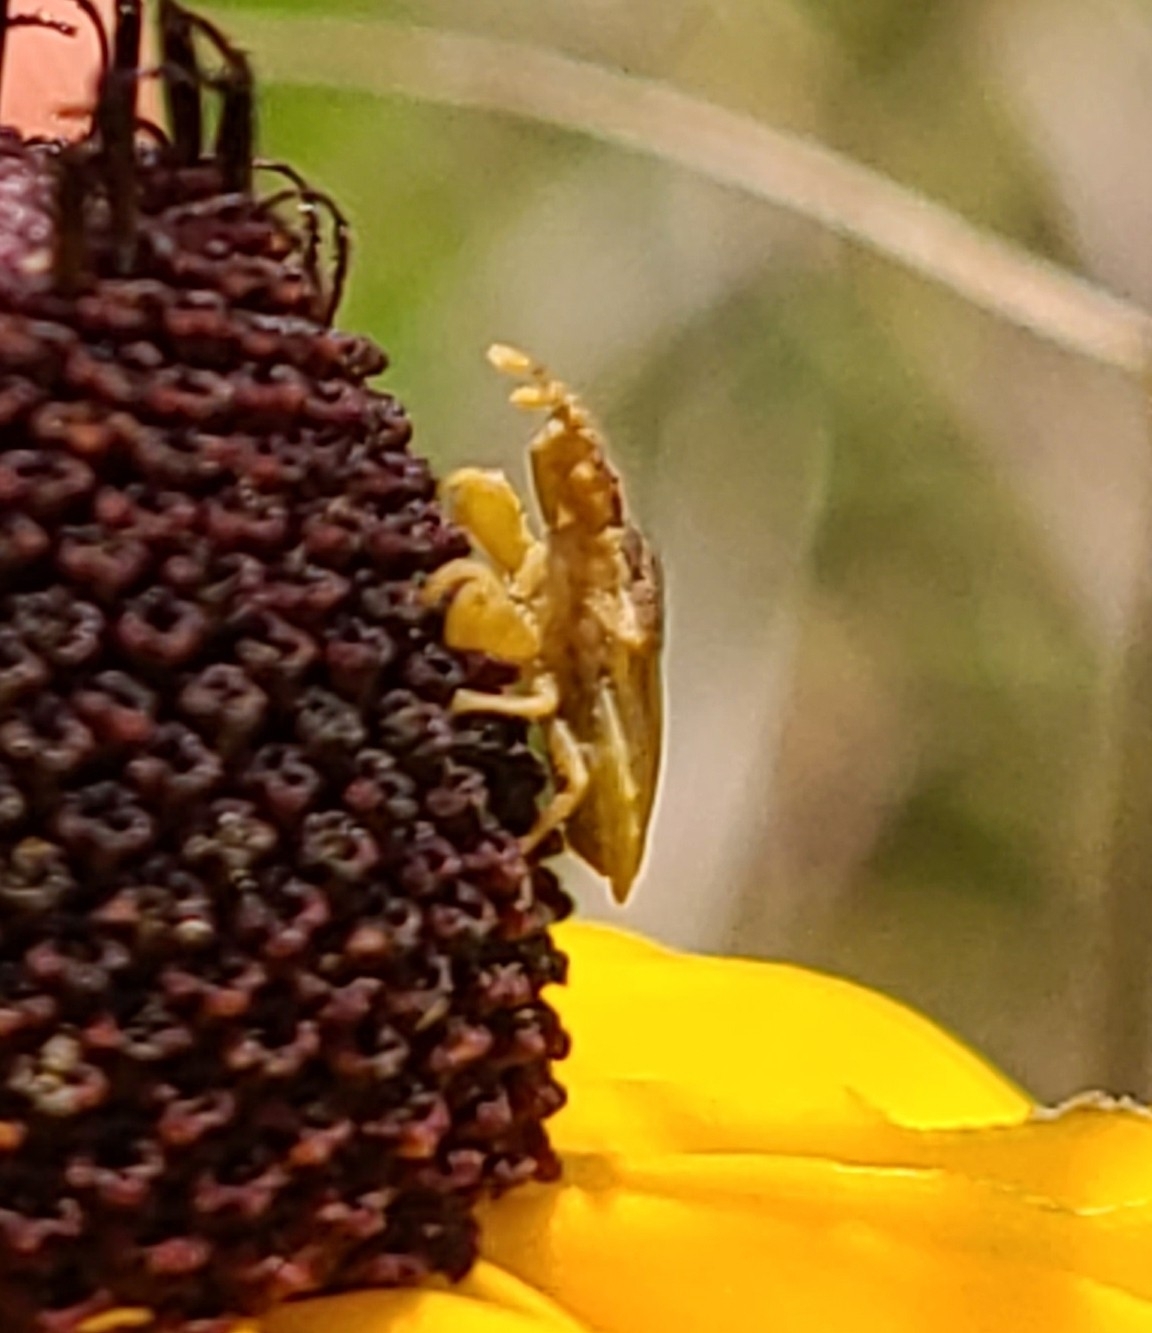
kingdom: Animalia
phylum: Arthropoda
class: Insecta
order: Hemiptera
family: Reduviidae
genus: Lophoscutus
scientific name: Lophoscutus prehensilis
